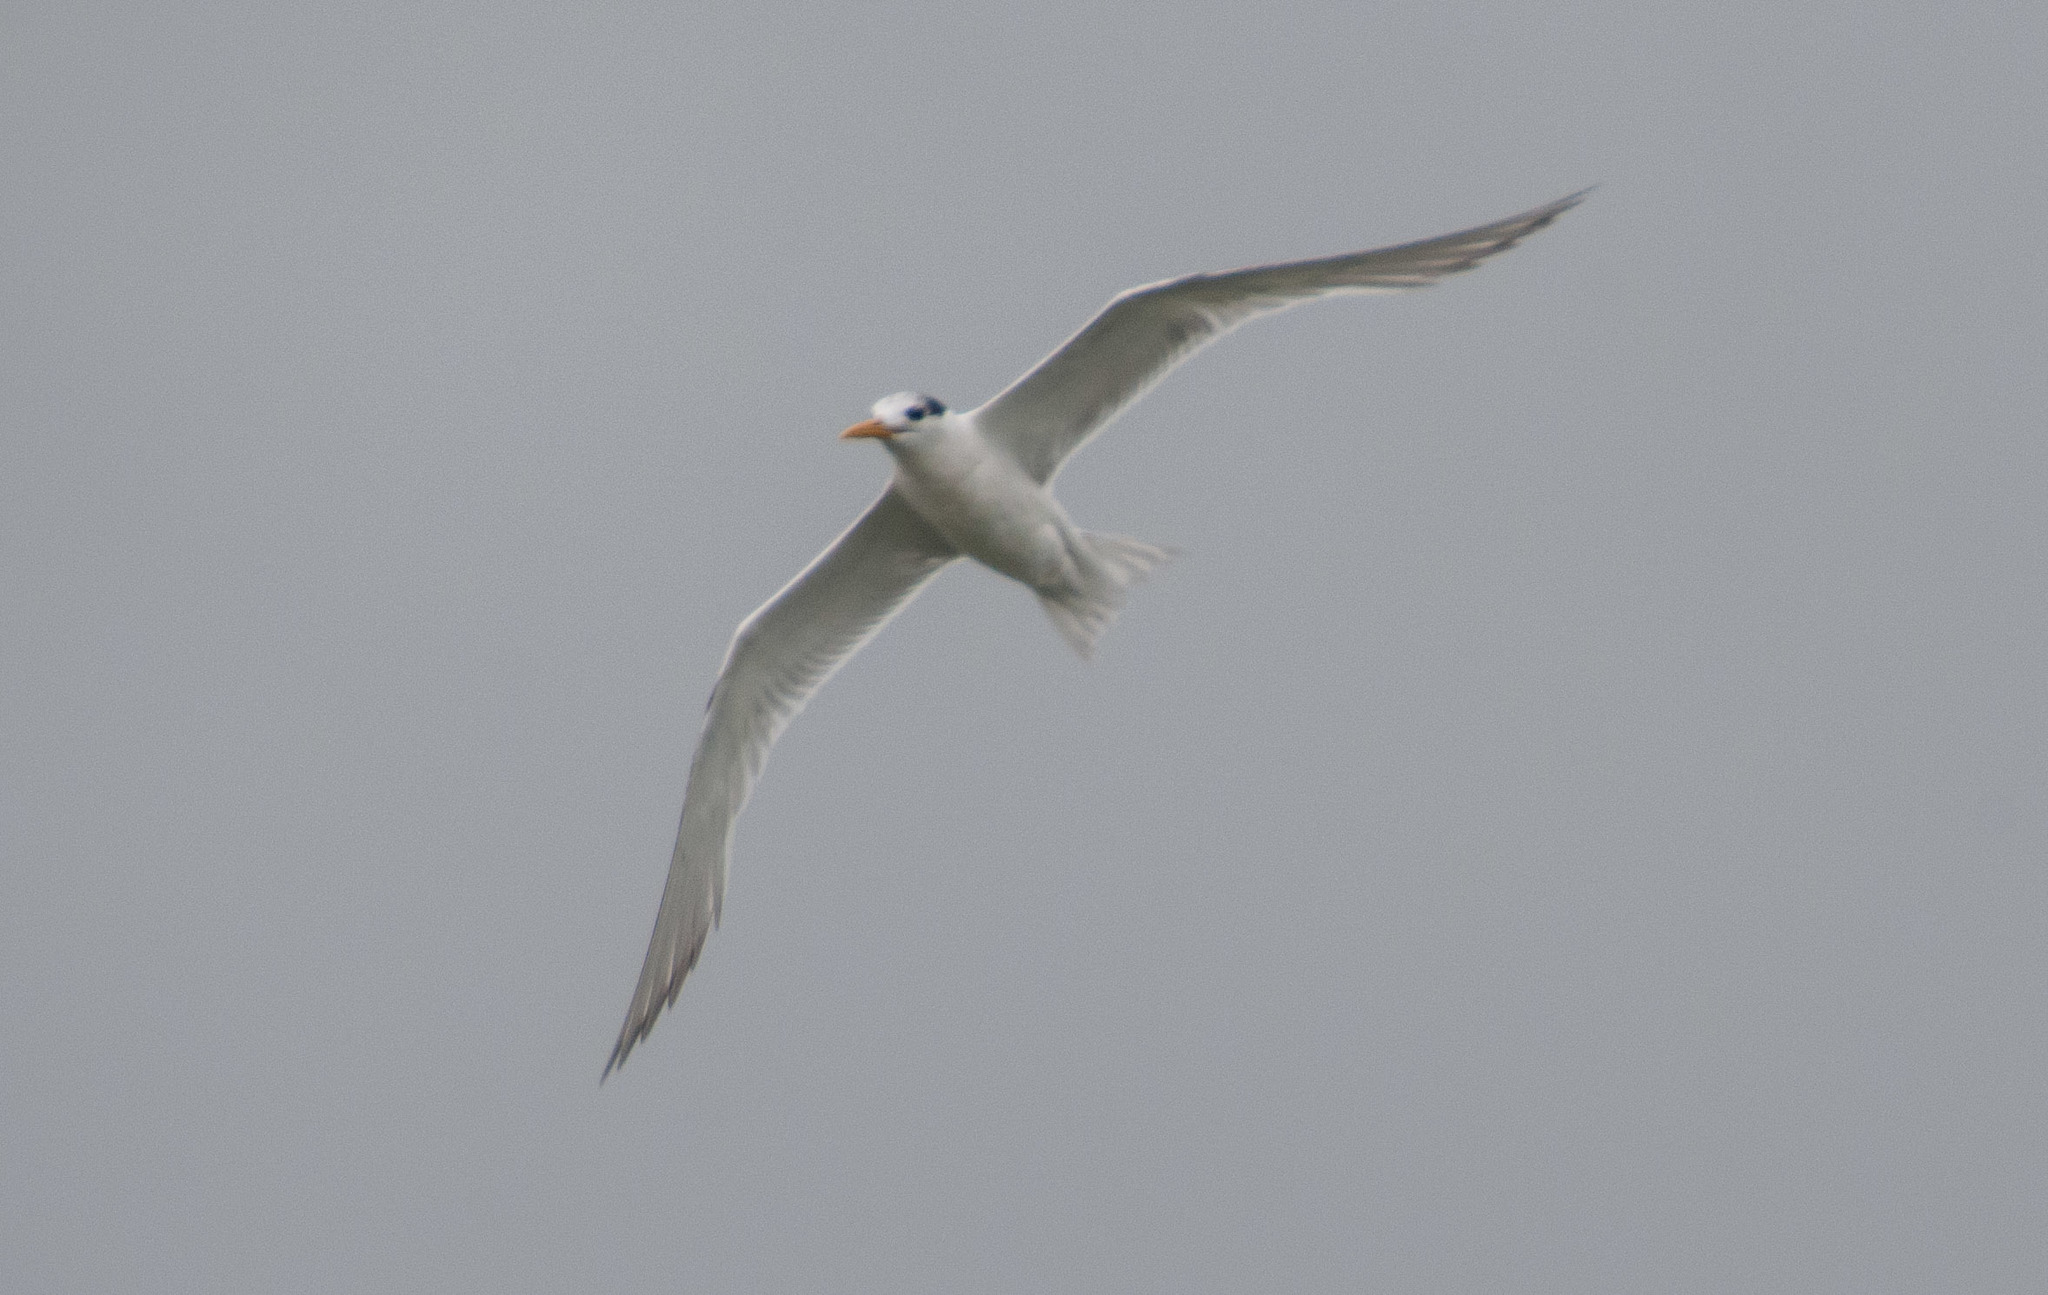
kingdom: Animalia
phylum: Chordata
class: Aves
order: Charadriiformes
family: Laridae
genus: Thalasseus
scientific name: Thalasseus bergii
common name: Greater crested tern
